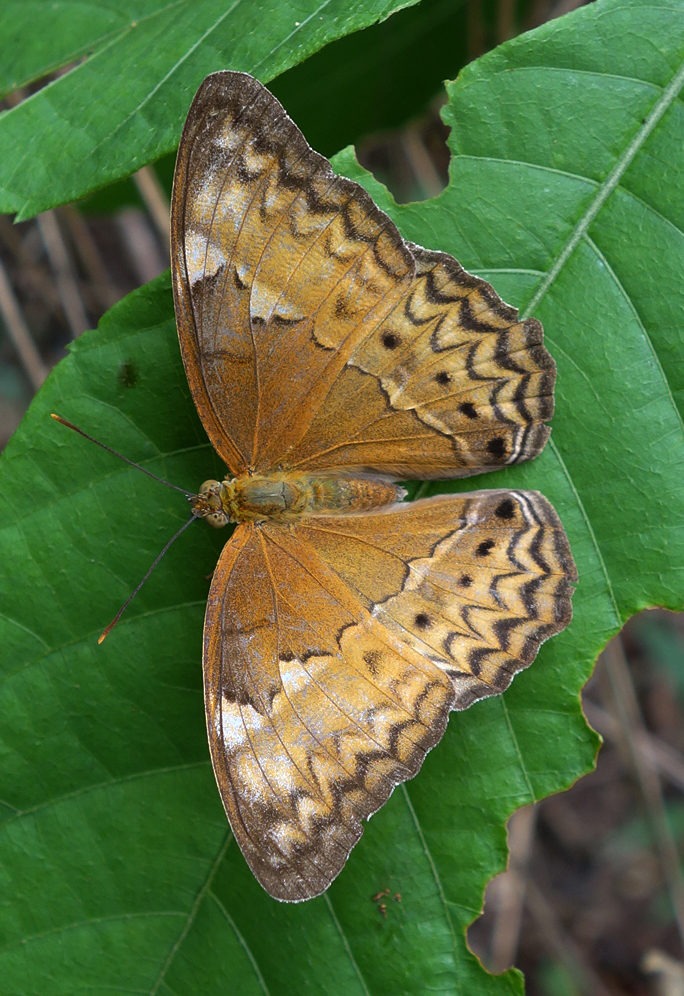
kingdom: Animalia
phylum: Arthropoda
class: Insecta
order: Lepidoptera
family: Nymphalidae
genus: Cirrochroa
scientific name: Cirrochroa tyche
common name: Common yeoman
